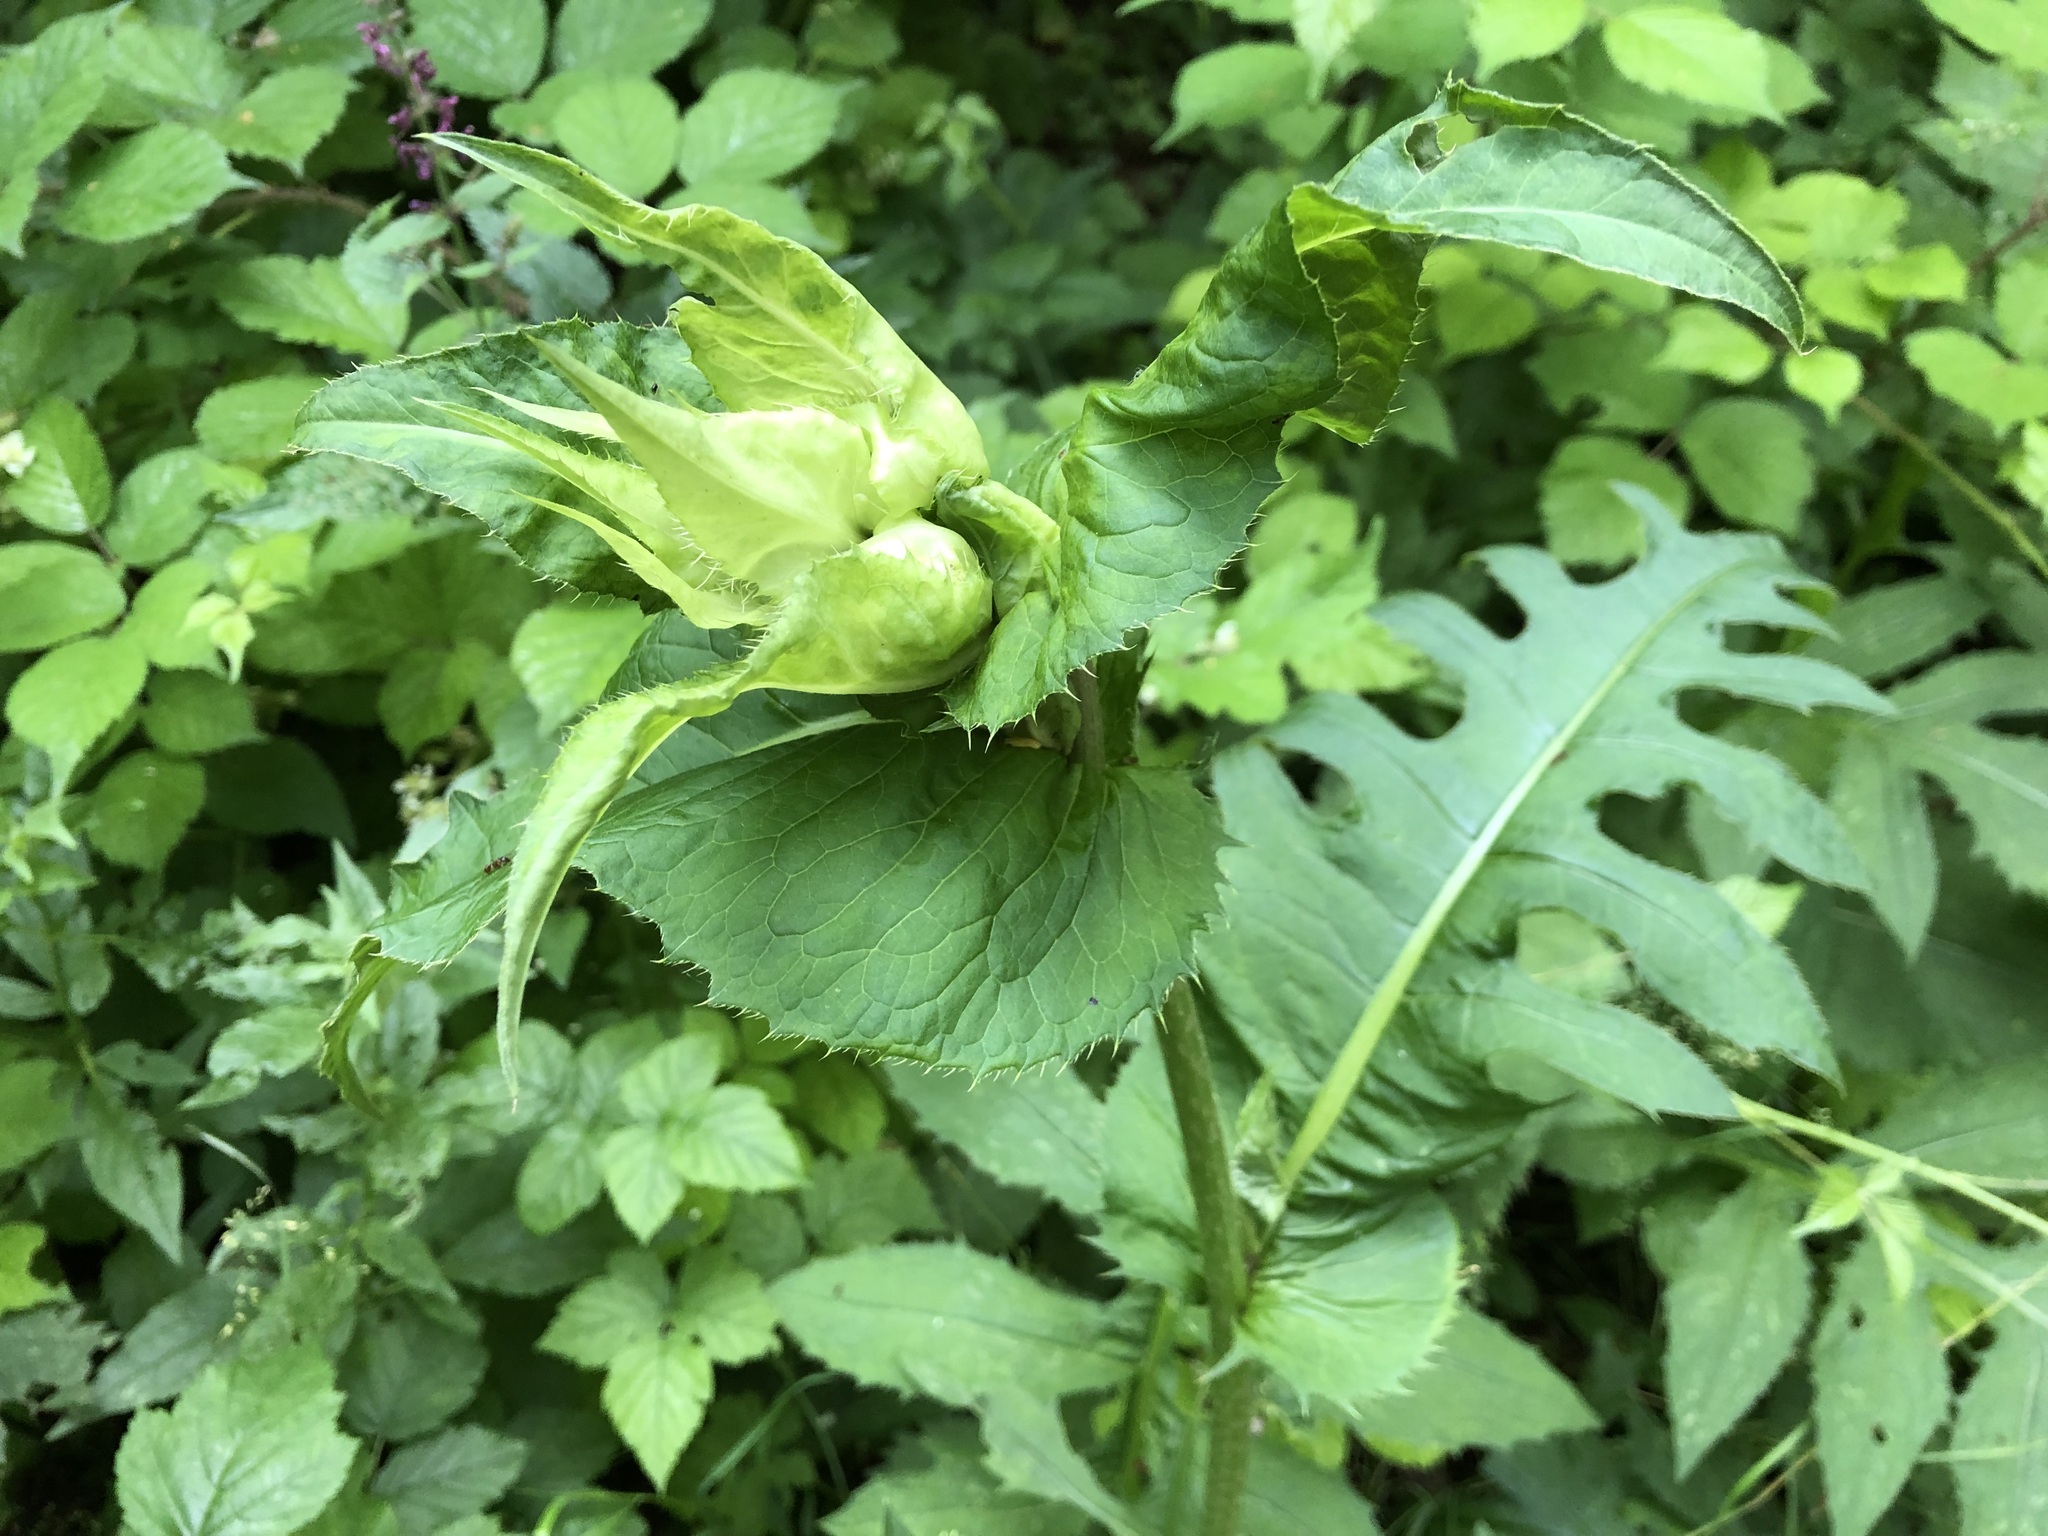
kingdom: Plantae
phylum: Tracheophyta
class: Magnoliopsida
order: Asterales
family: Asteraceae
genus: Cirsium
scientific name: Cirsium oleraceum
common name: Cabbage thistle
